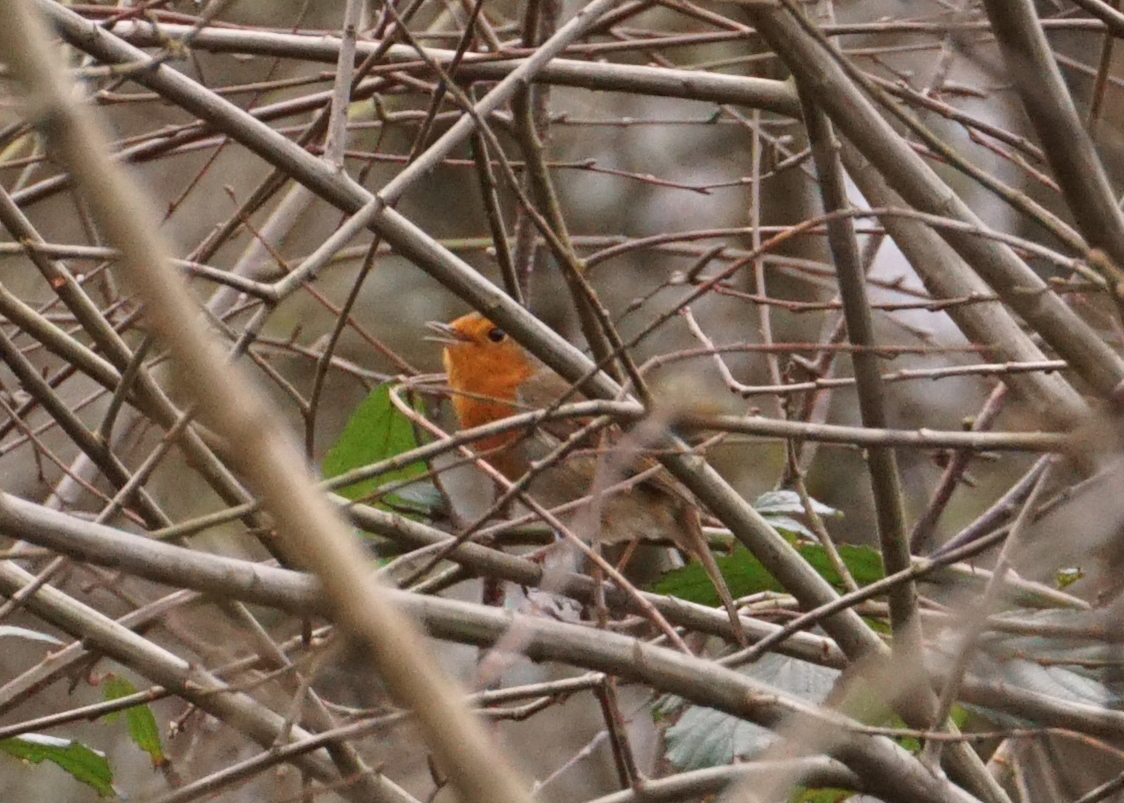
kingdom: Animalia
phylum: Chordata
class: Aves
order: Passeriformes
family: Muscicapidae
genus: Erithacus
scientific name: Erithacus rubecula
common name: European robin
